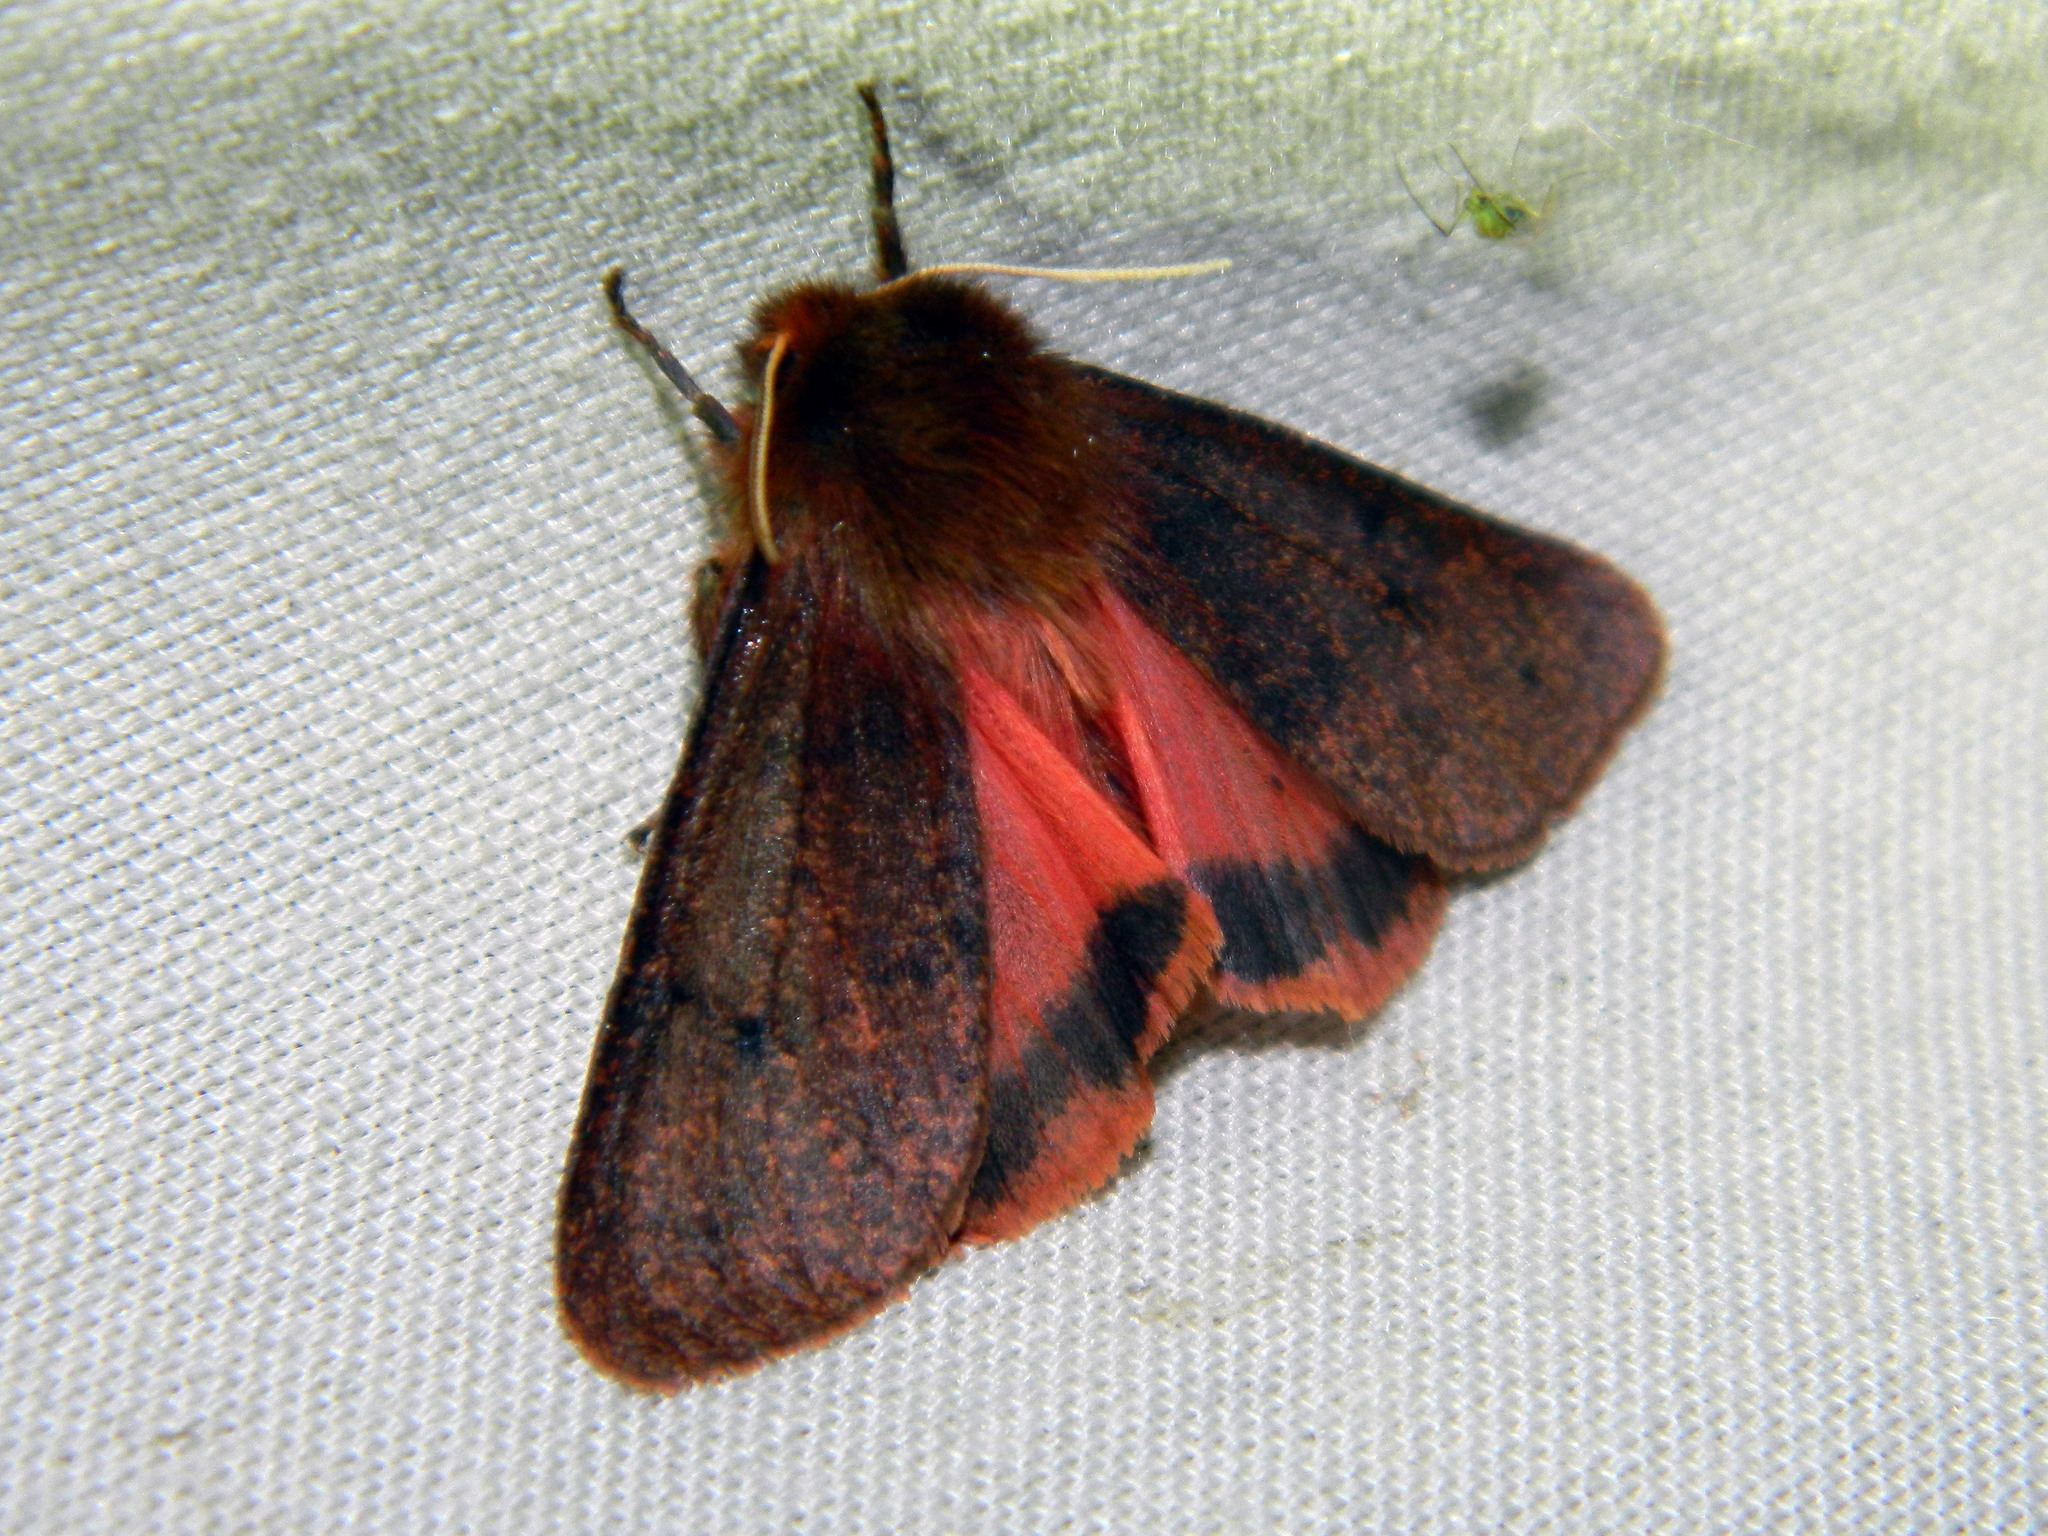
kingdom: Animalia
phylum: Arthropoda
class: Insecta
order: Lepidoptera
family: Erebidae
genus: Phragmatobia
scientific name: Phragmatobia assimilans
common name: Large ruby tiger moth
